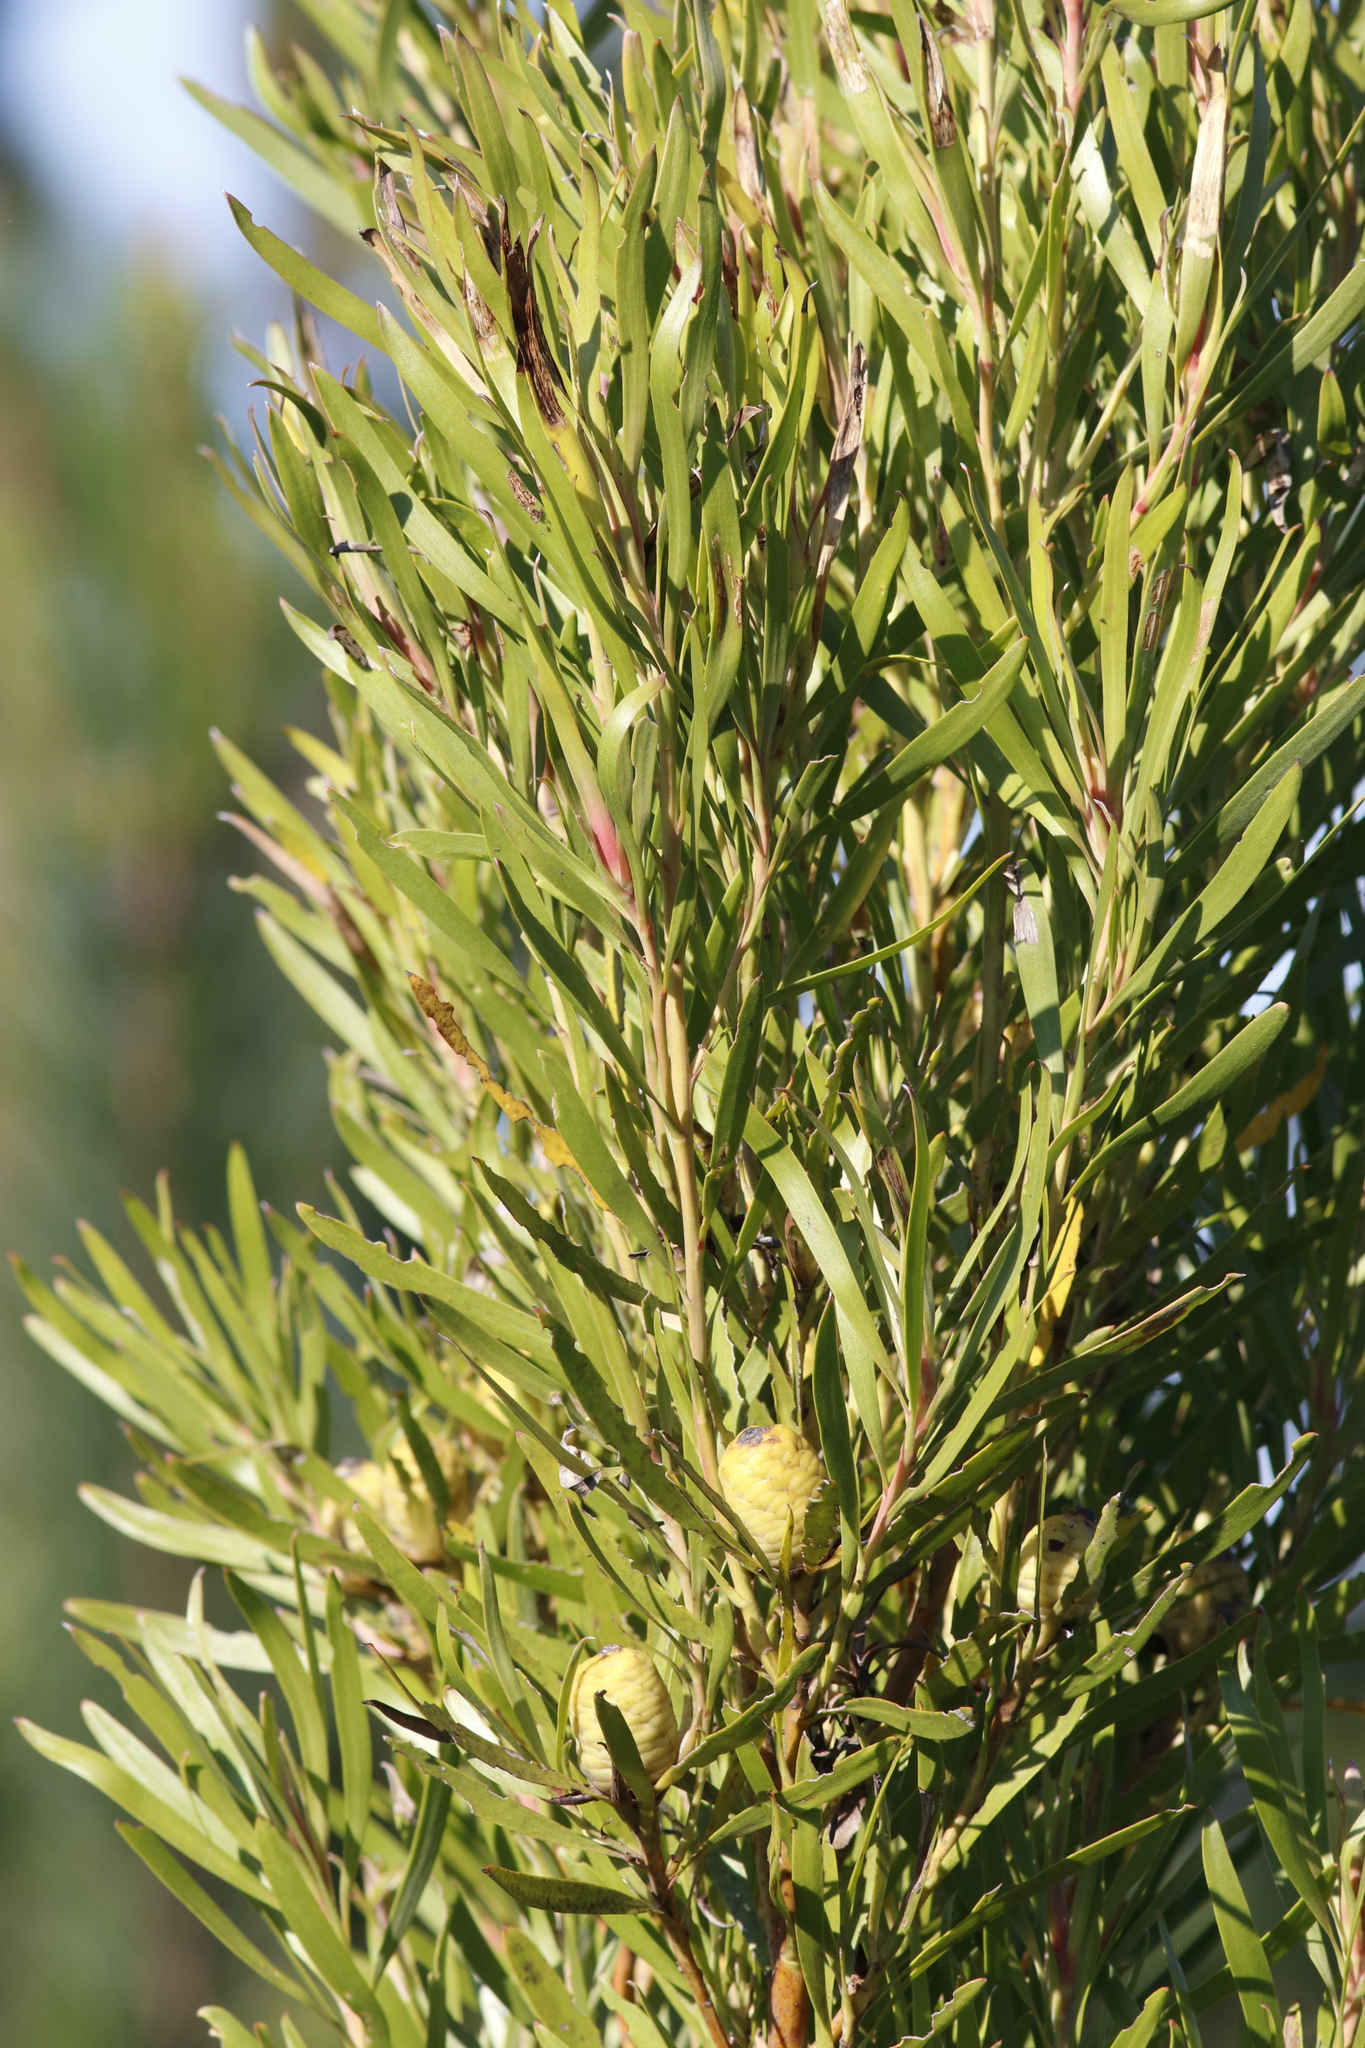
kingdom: Plantae
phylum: Tracheophyta
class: Magnoliopsida
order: Proteales
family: Proteaceae
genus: Leucadendron
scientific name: Leucadendron eucalyptifolium
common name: Gum-leaved conebush
